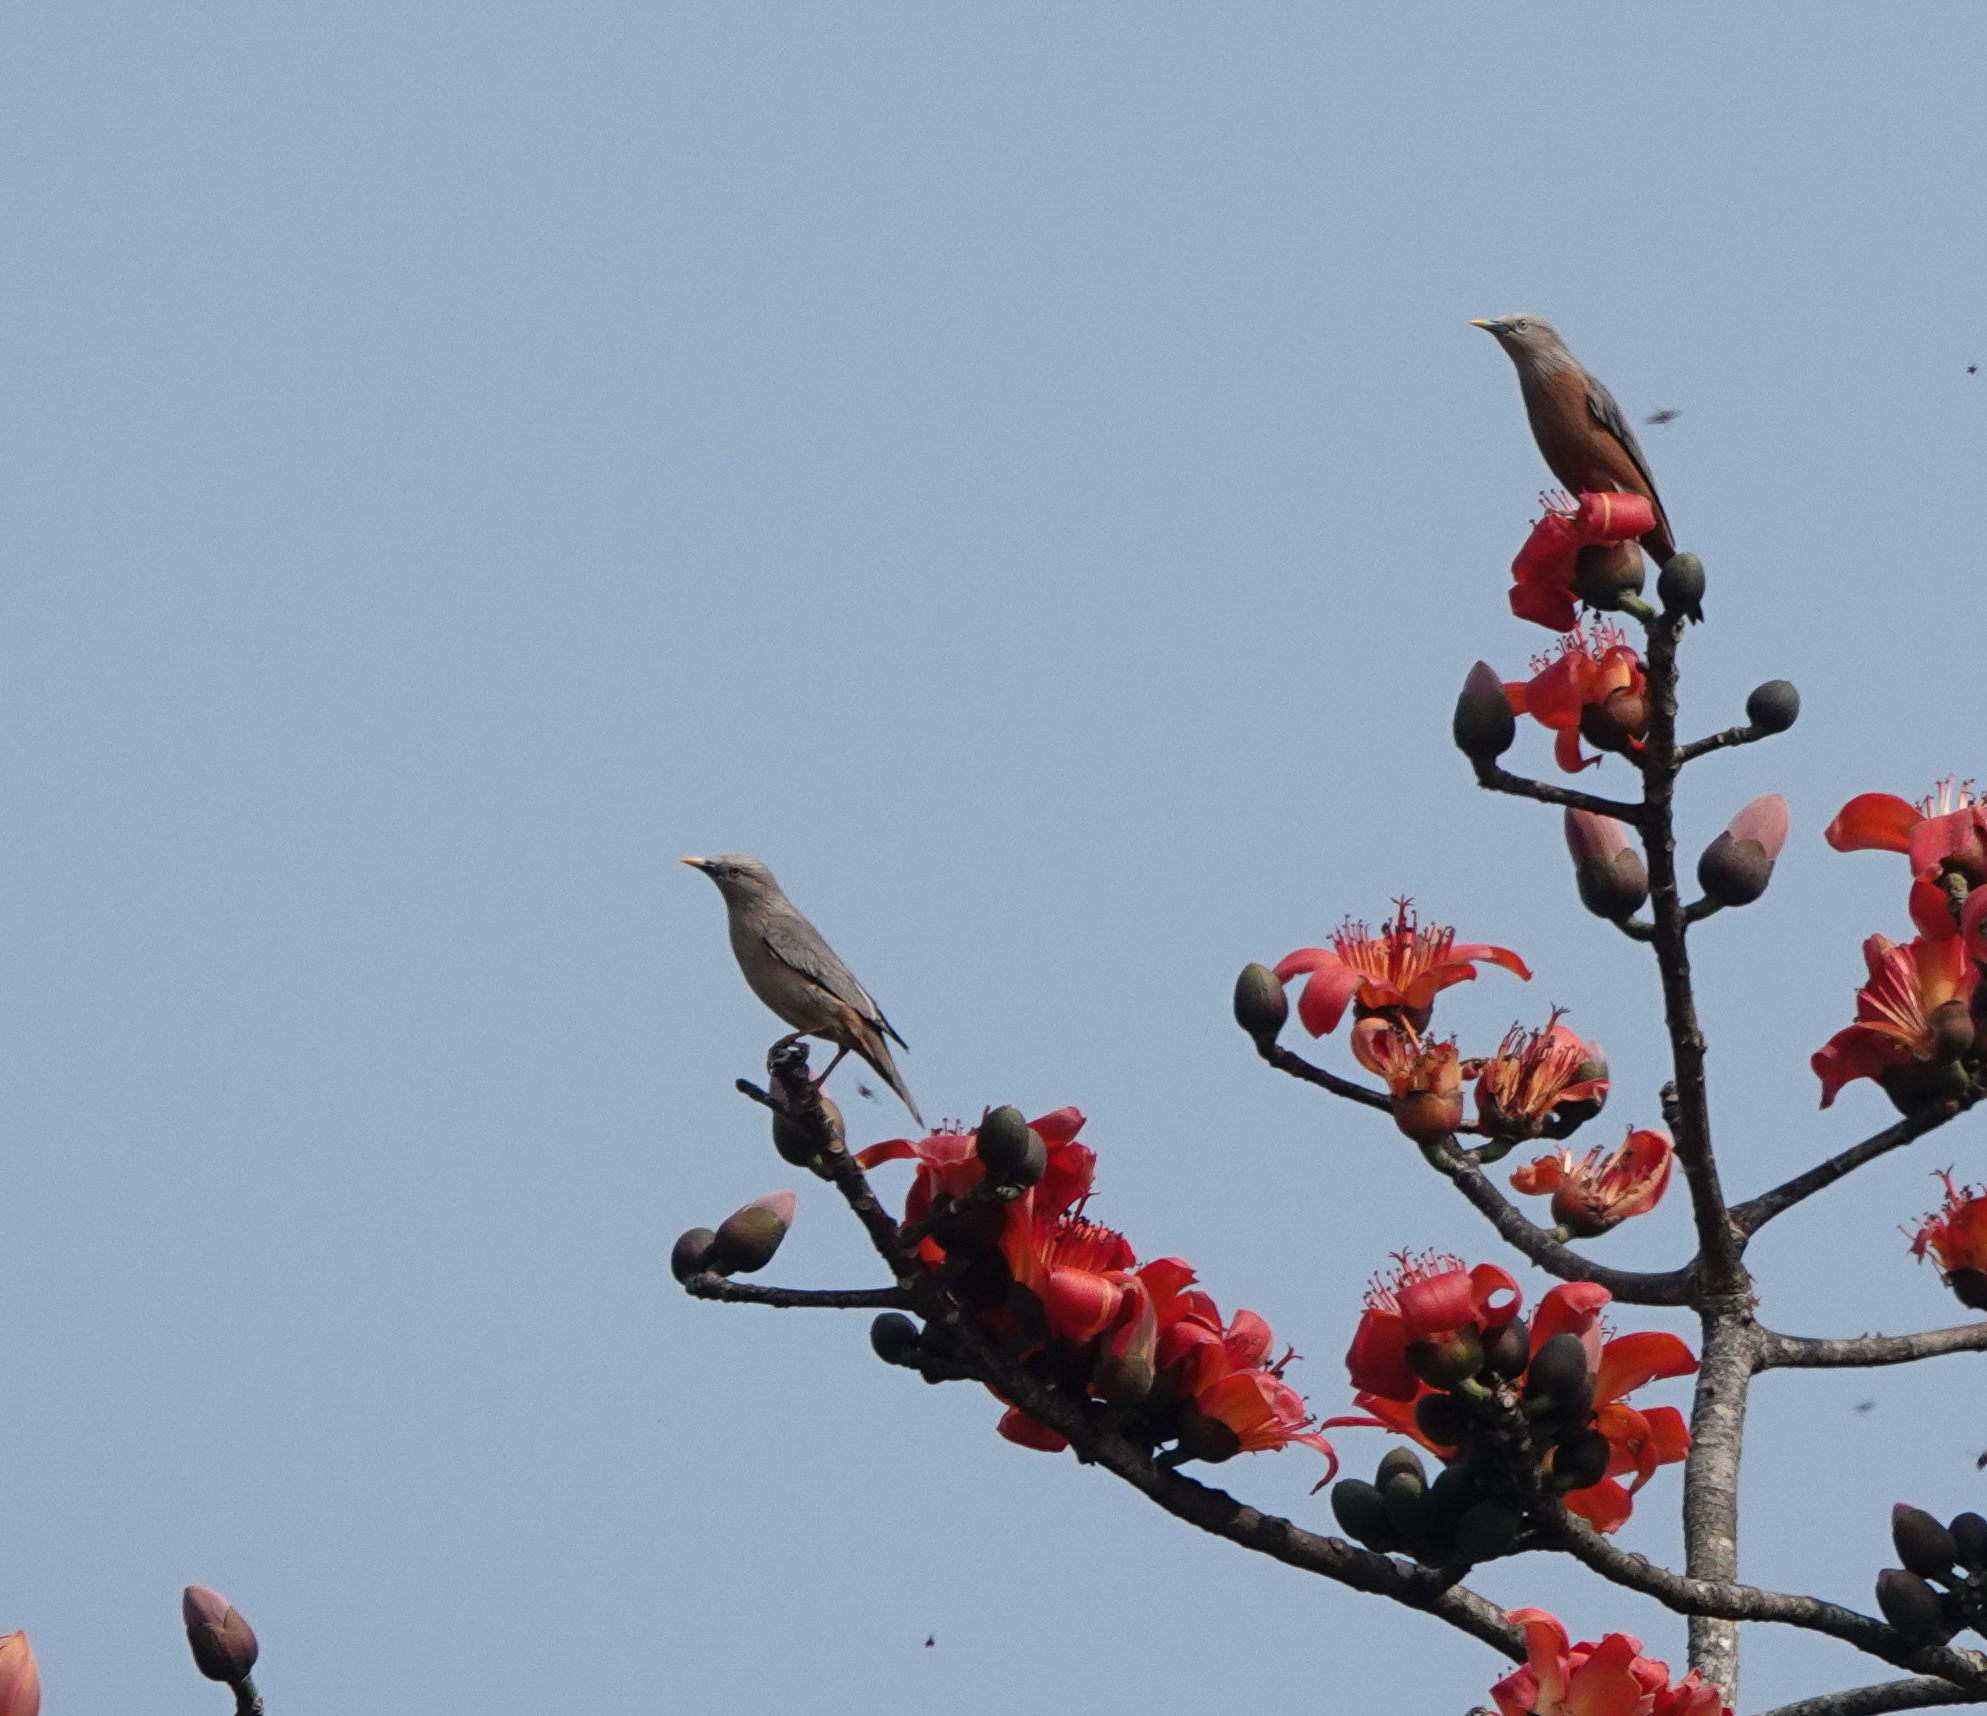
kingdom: Animalia
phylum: Chordata
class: Aves
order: Passeriformes
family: Sturnidae
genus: Sturnia
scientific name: Sturnia malabarica
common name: Chestnut-tailed starling
